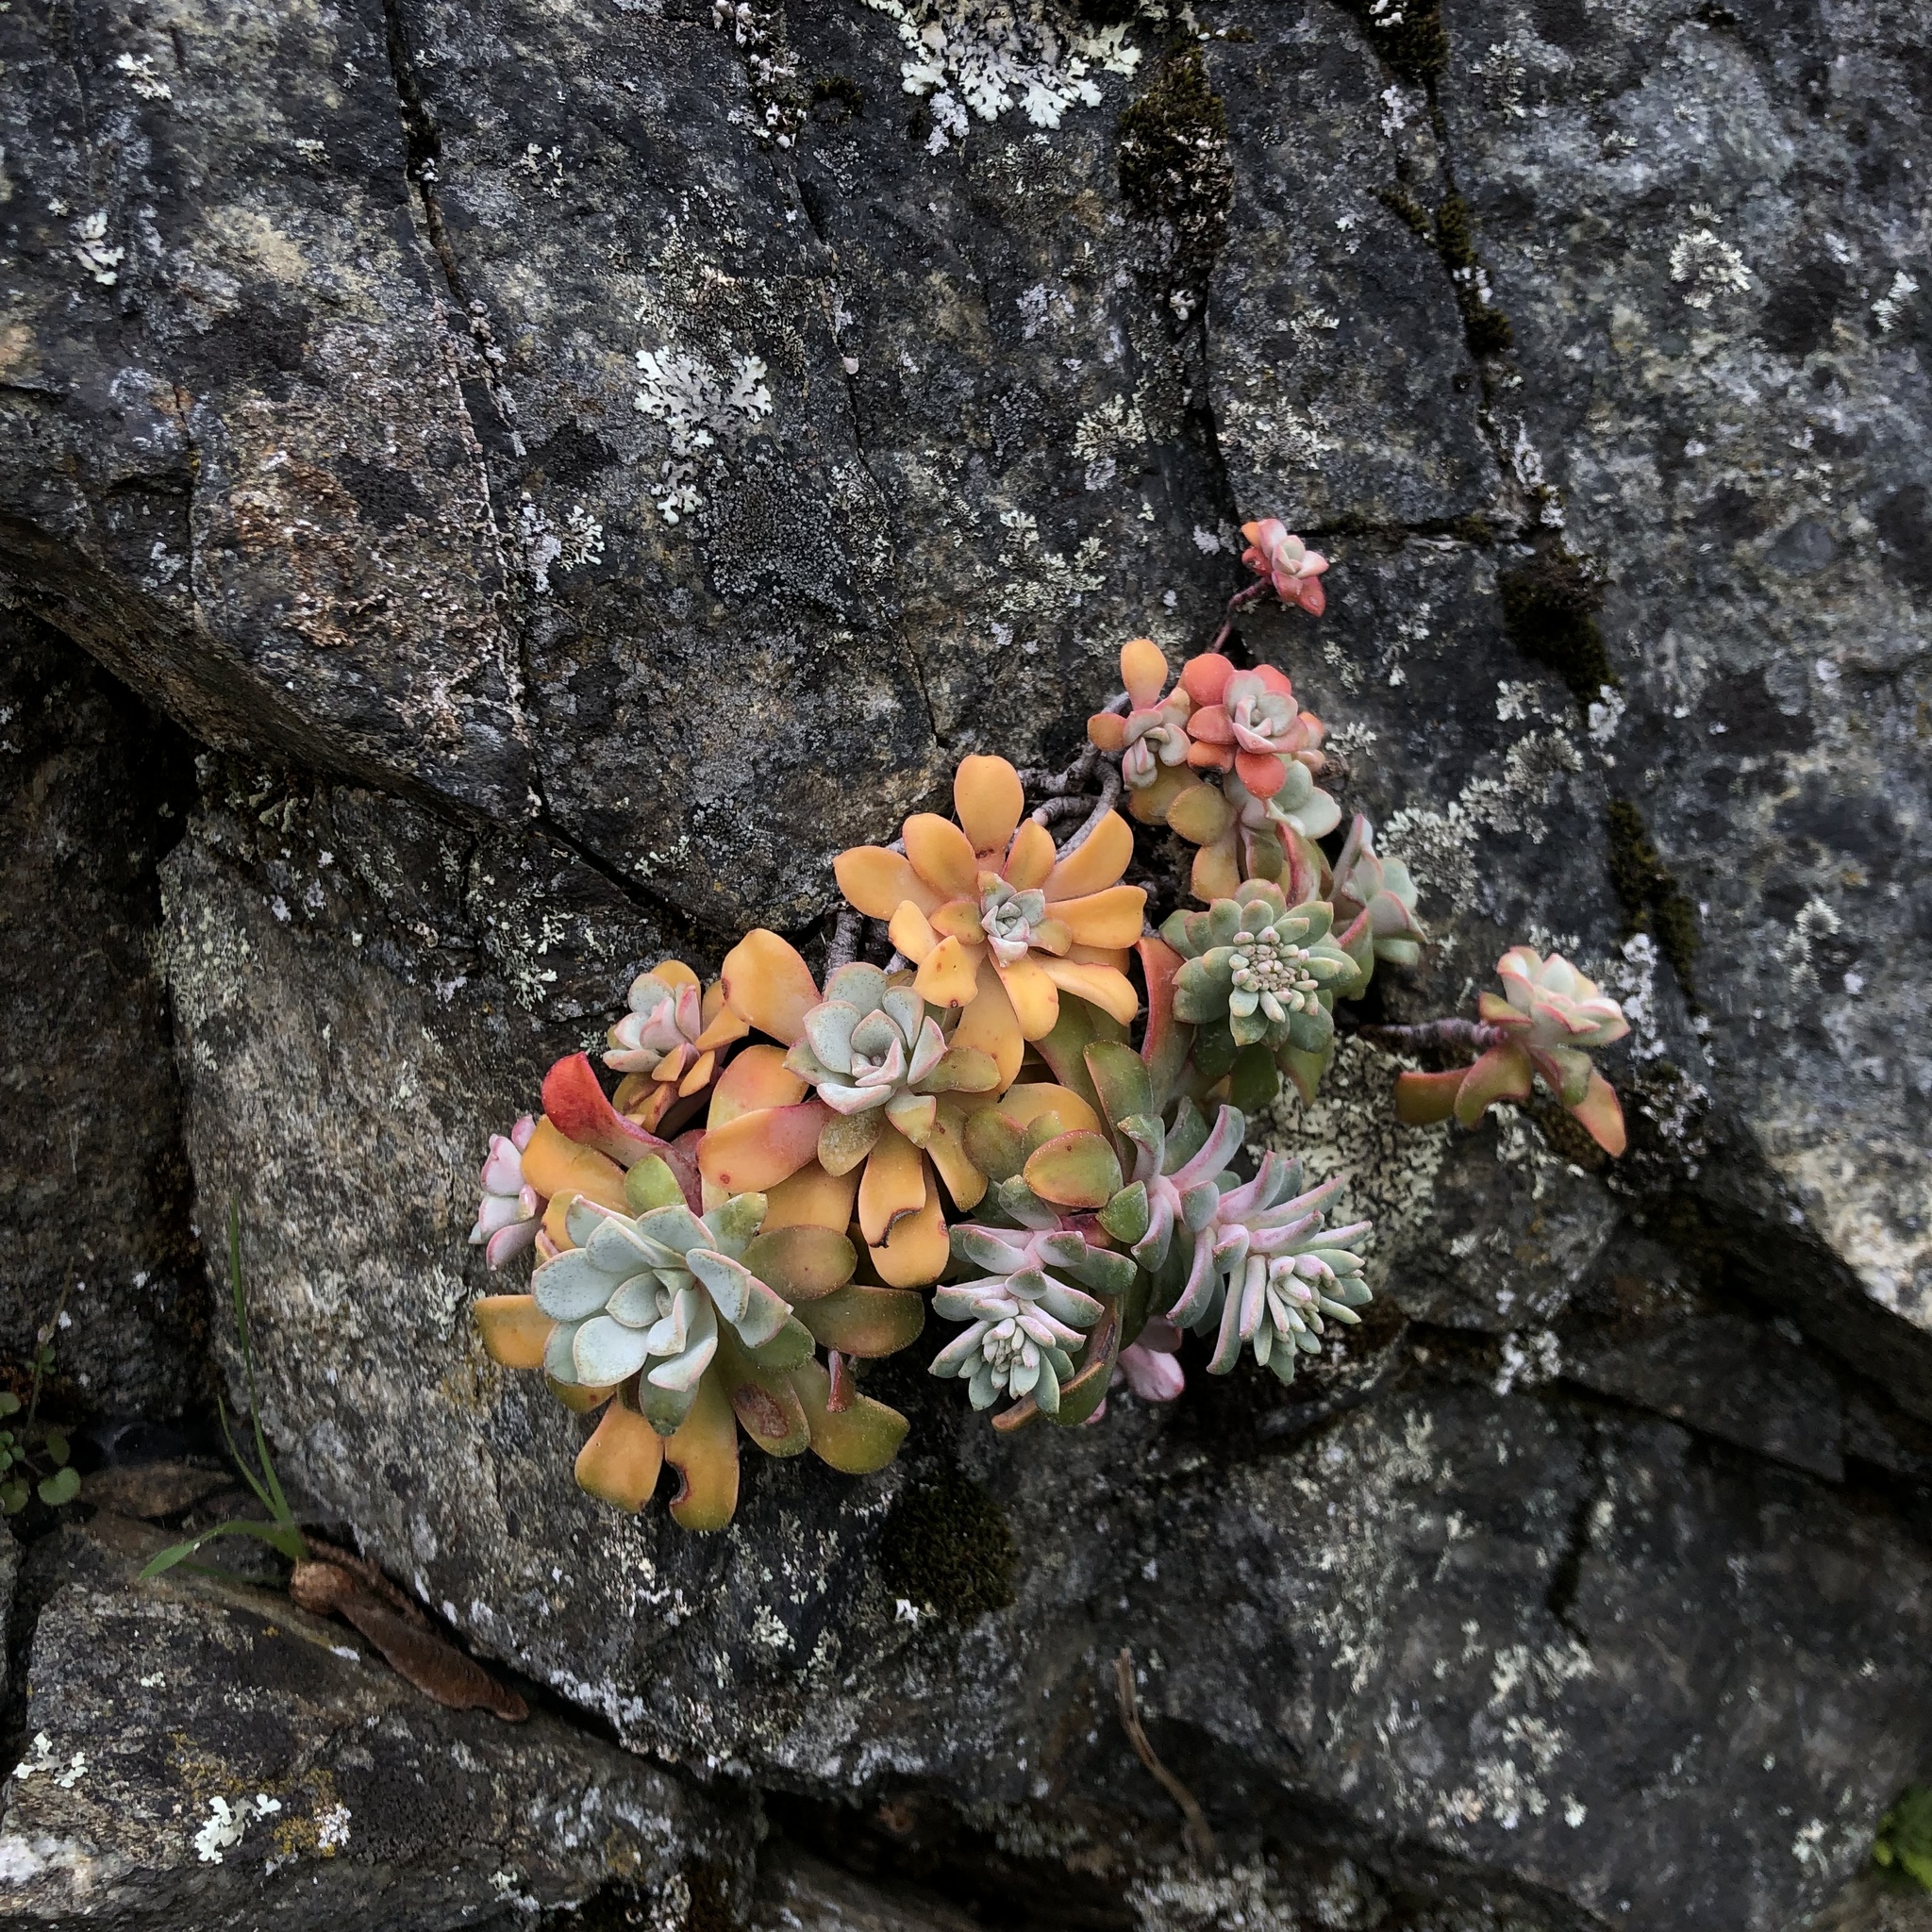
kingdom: Plantae
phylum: Tracheophyta
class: Magnoliopsida
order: Saxifragales
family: Crassulaceae
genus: Sedum
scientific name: Sedum spathulifolium
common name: Colorado stonecrop
